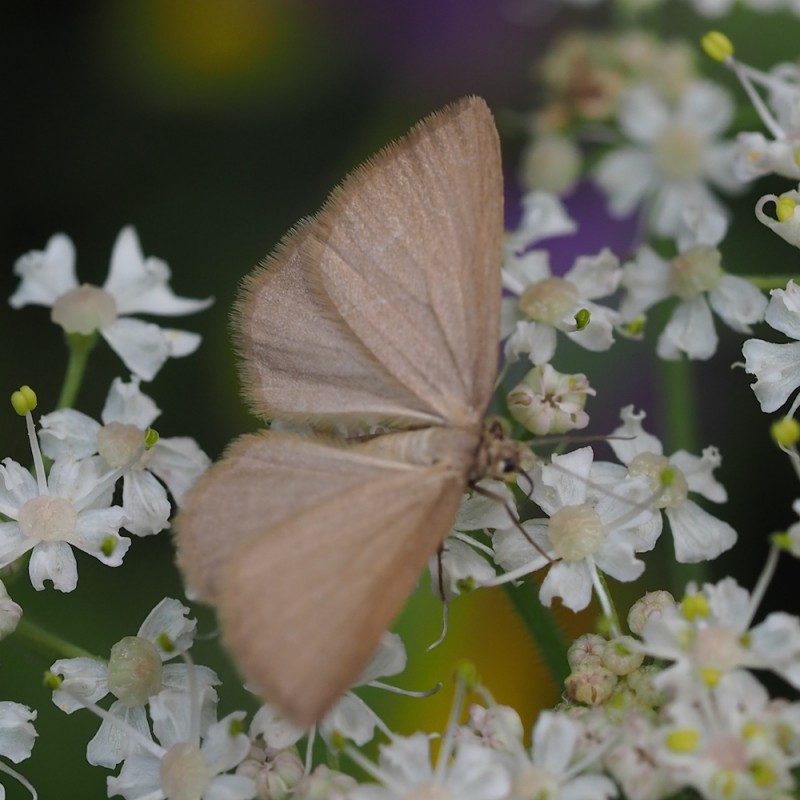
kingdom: Animalia
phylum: Arthropoda
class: Insecta
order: Lepidoptera
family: Geometridae
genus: Minoa
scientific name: Minoa murinata
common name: Drab looper
